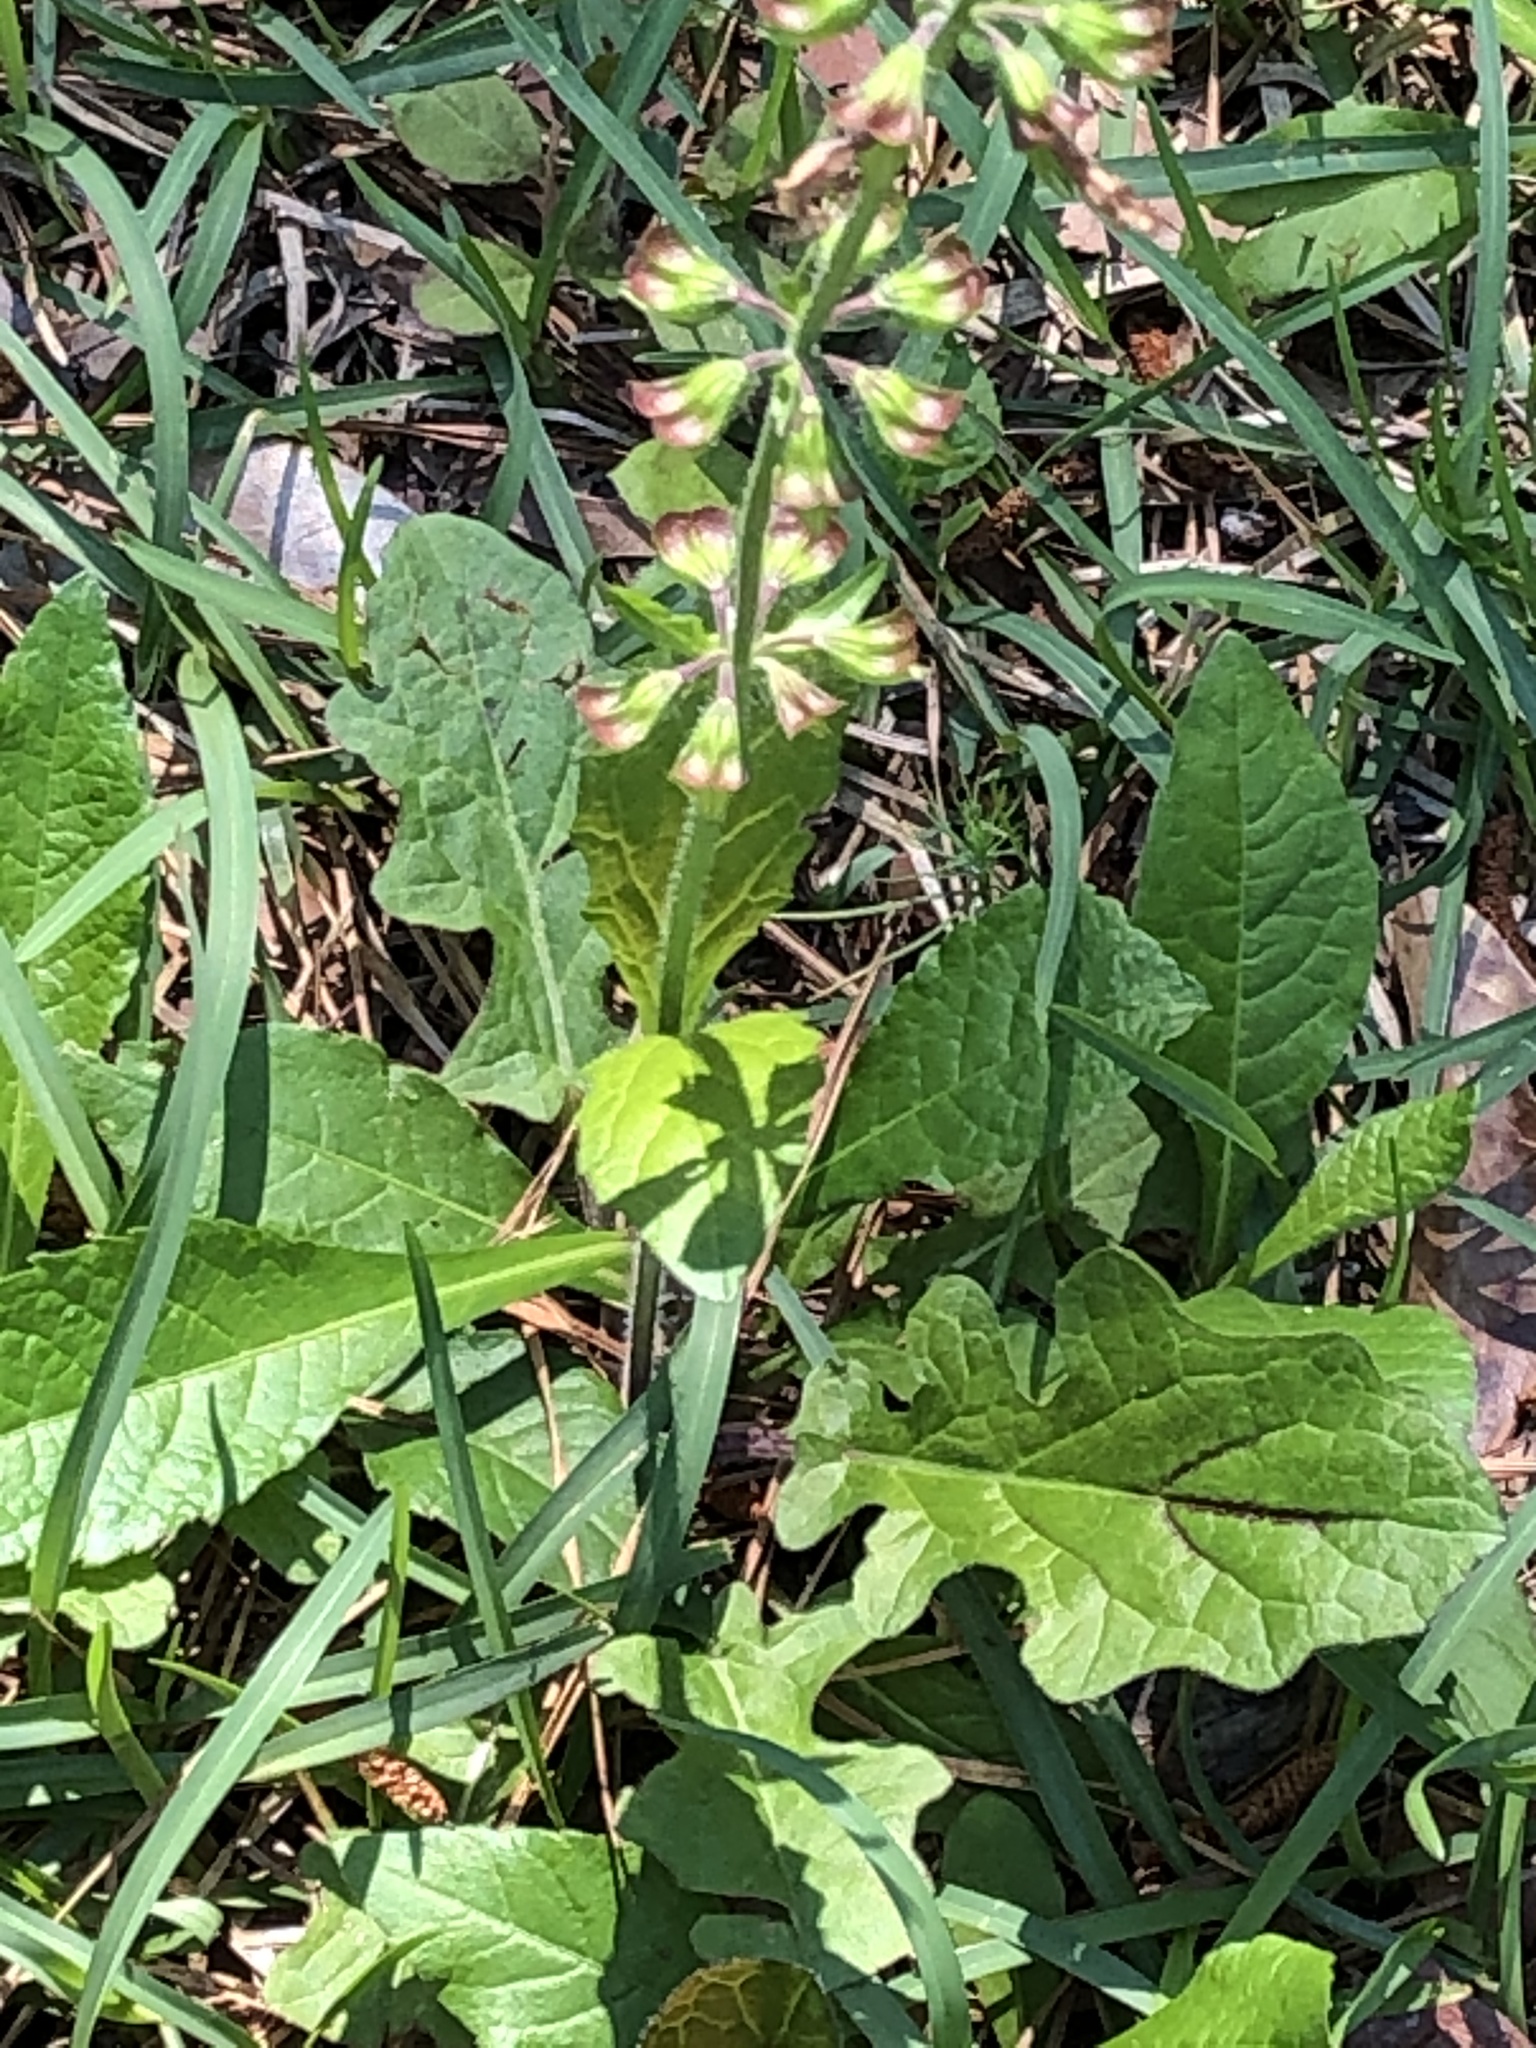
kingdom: Plantae
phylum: Tracheophyta
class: Magnoliopsida
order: Lamiales
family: Lamiaceae
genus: Salvia
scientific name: Salvia lyrata
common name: Cancerweed
